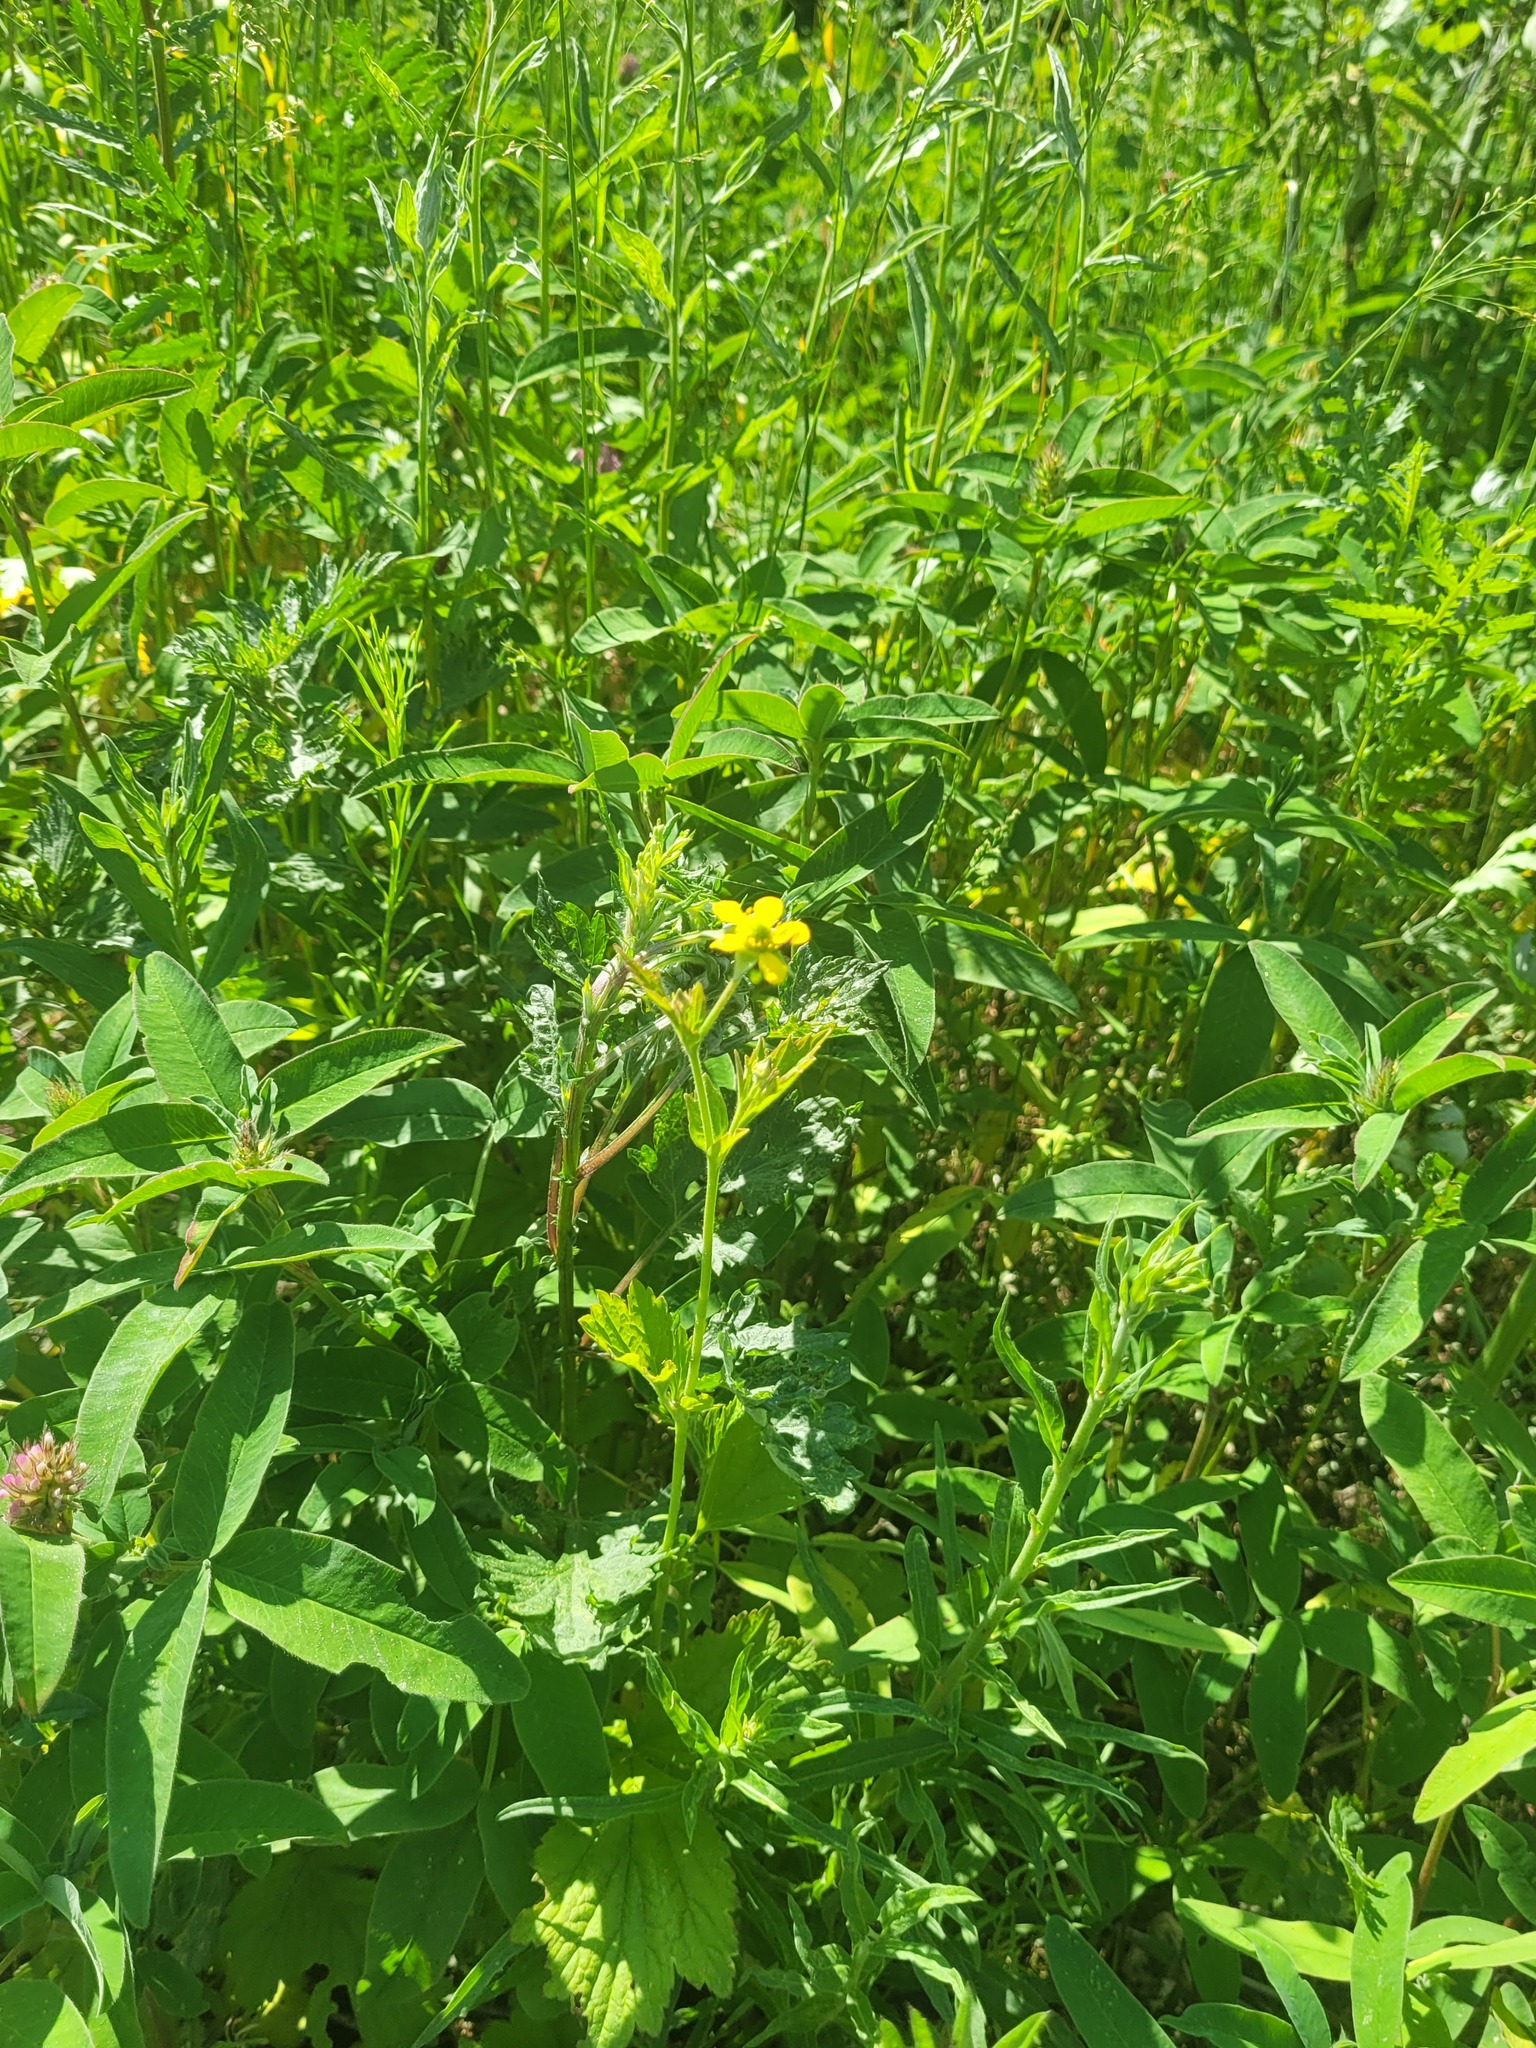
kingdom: Plantae
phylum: Tracheophyta
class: Magnoliopsida
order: Rosales
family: Rosaceae
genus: Geum
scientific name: Geum aleppicum
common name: Yellow avens
